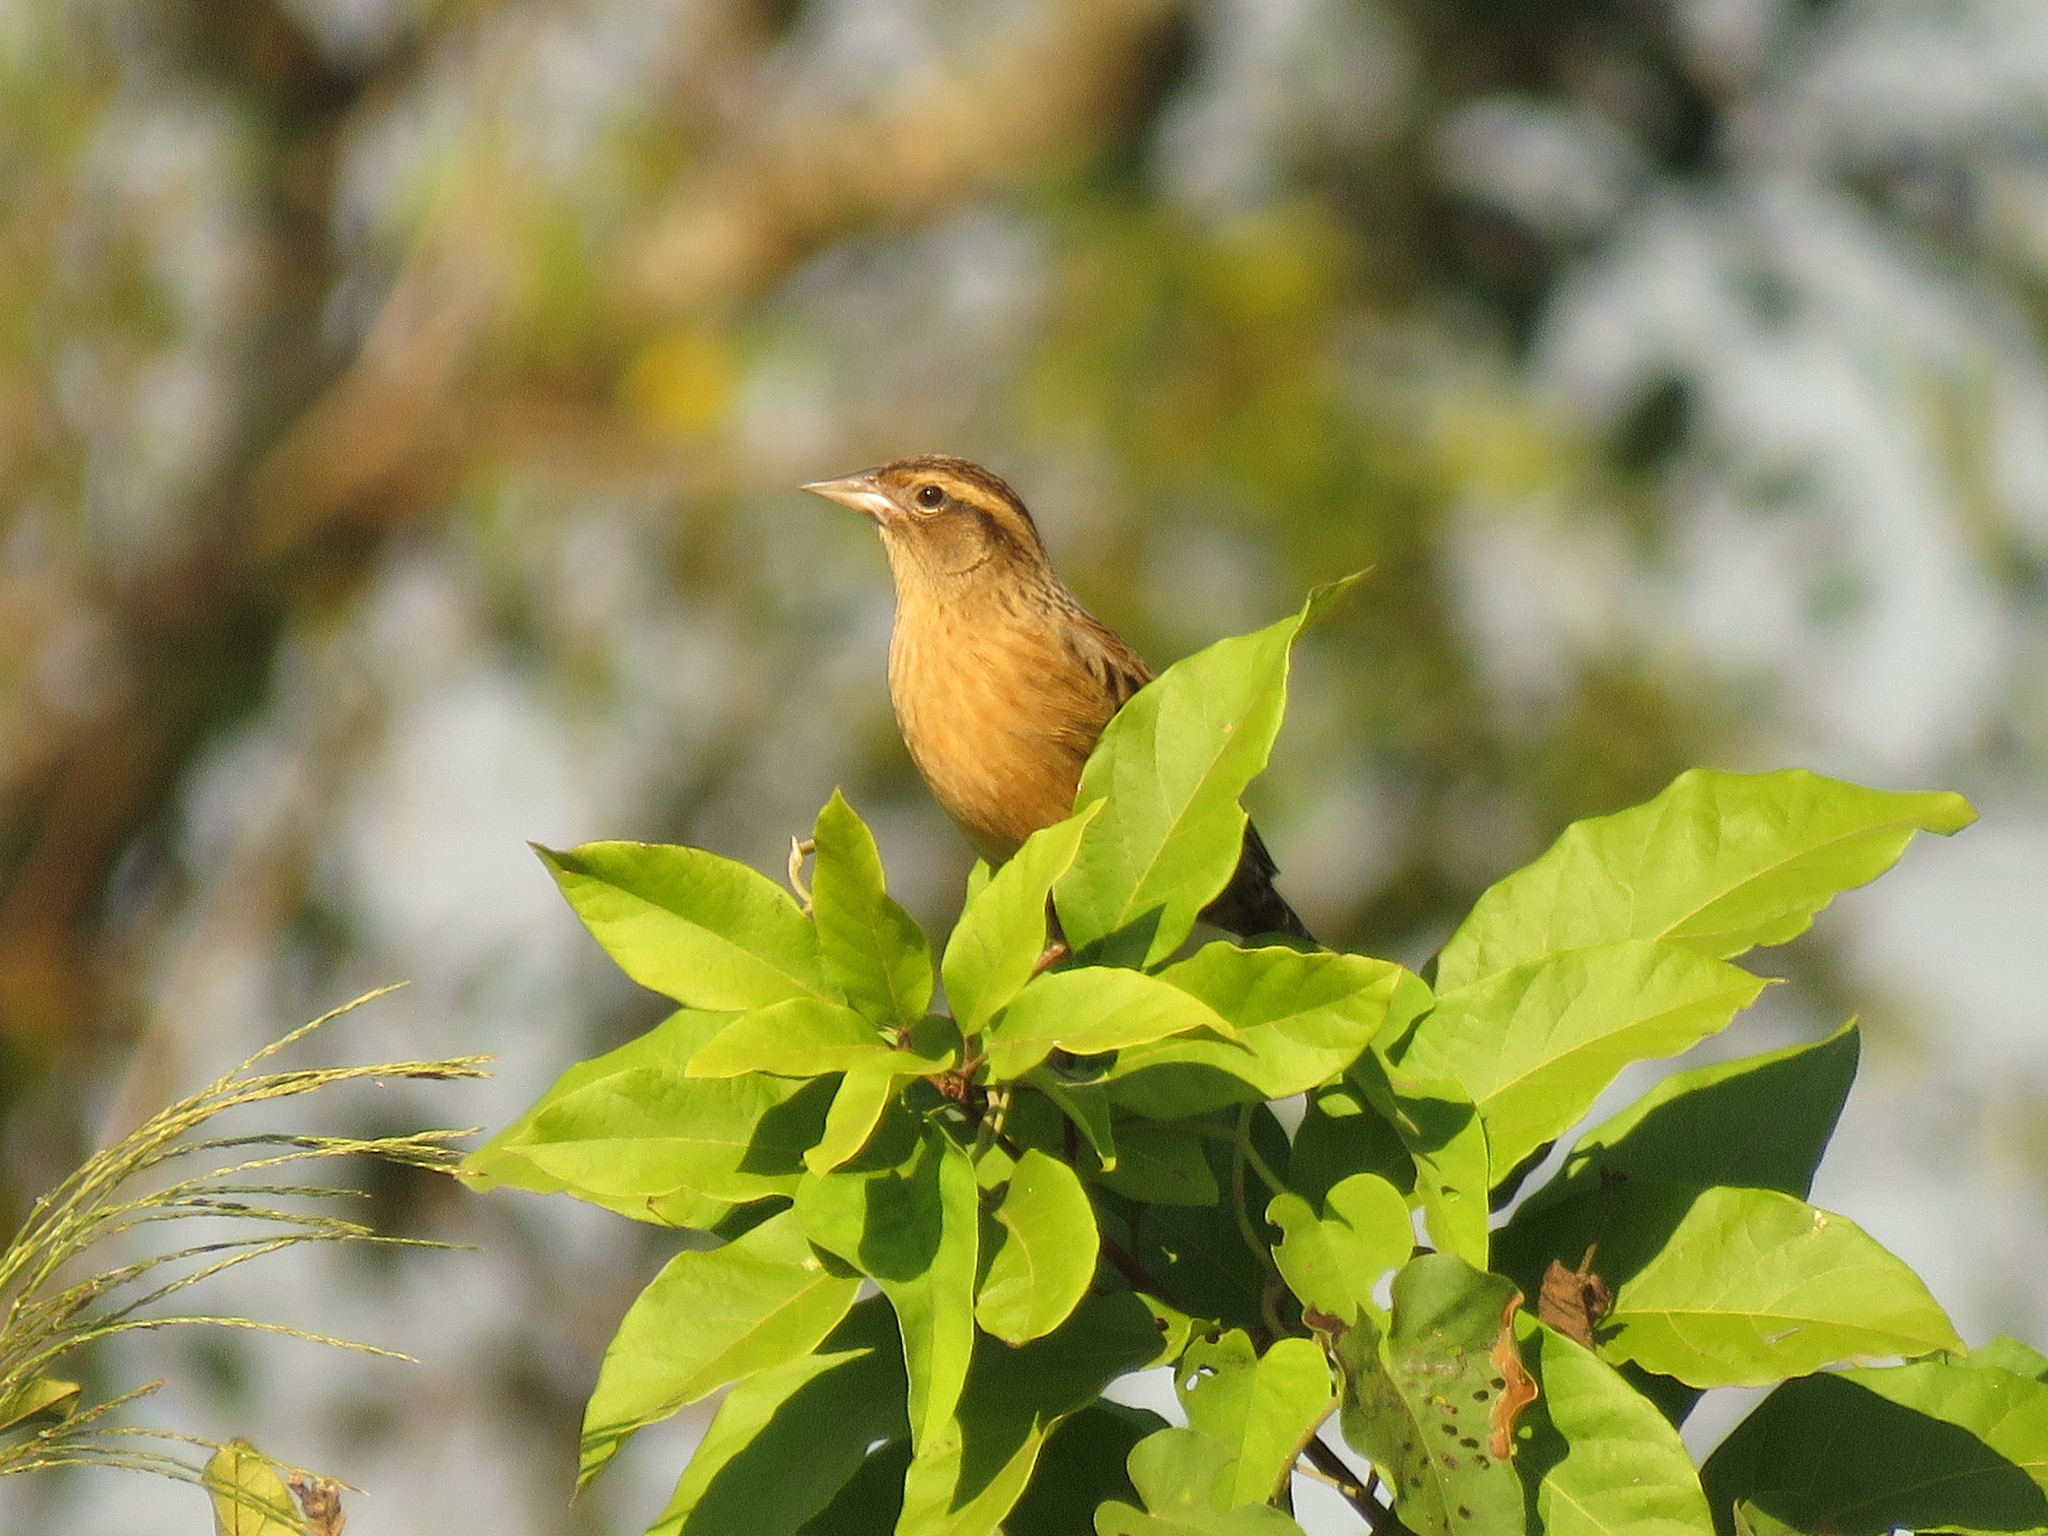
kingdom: Animalia
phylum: Chordata
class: Aves
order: Passeriformes
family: Icteridae
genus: Sturnella
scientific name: Sturnella superciliaris
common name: White-browed blackbird
